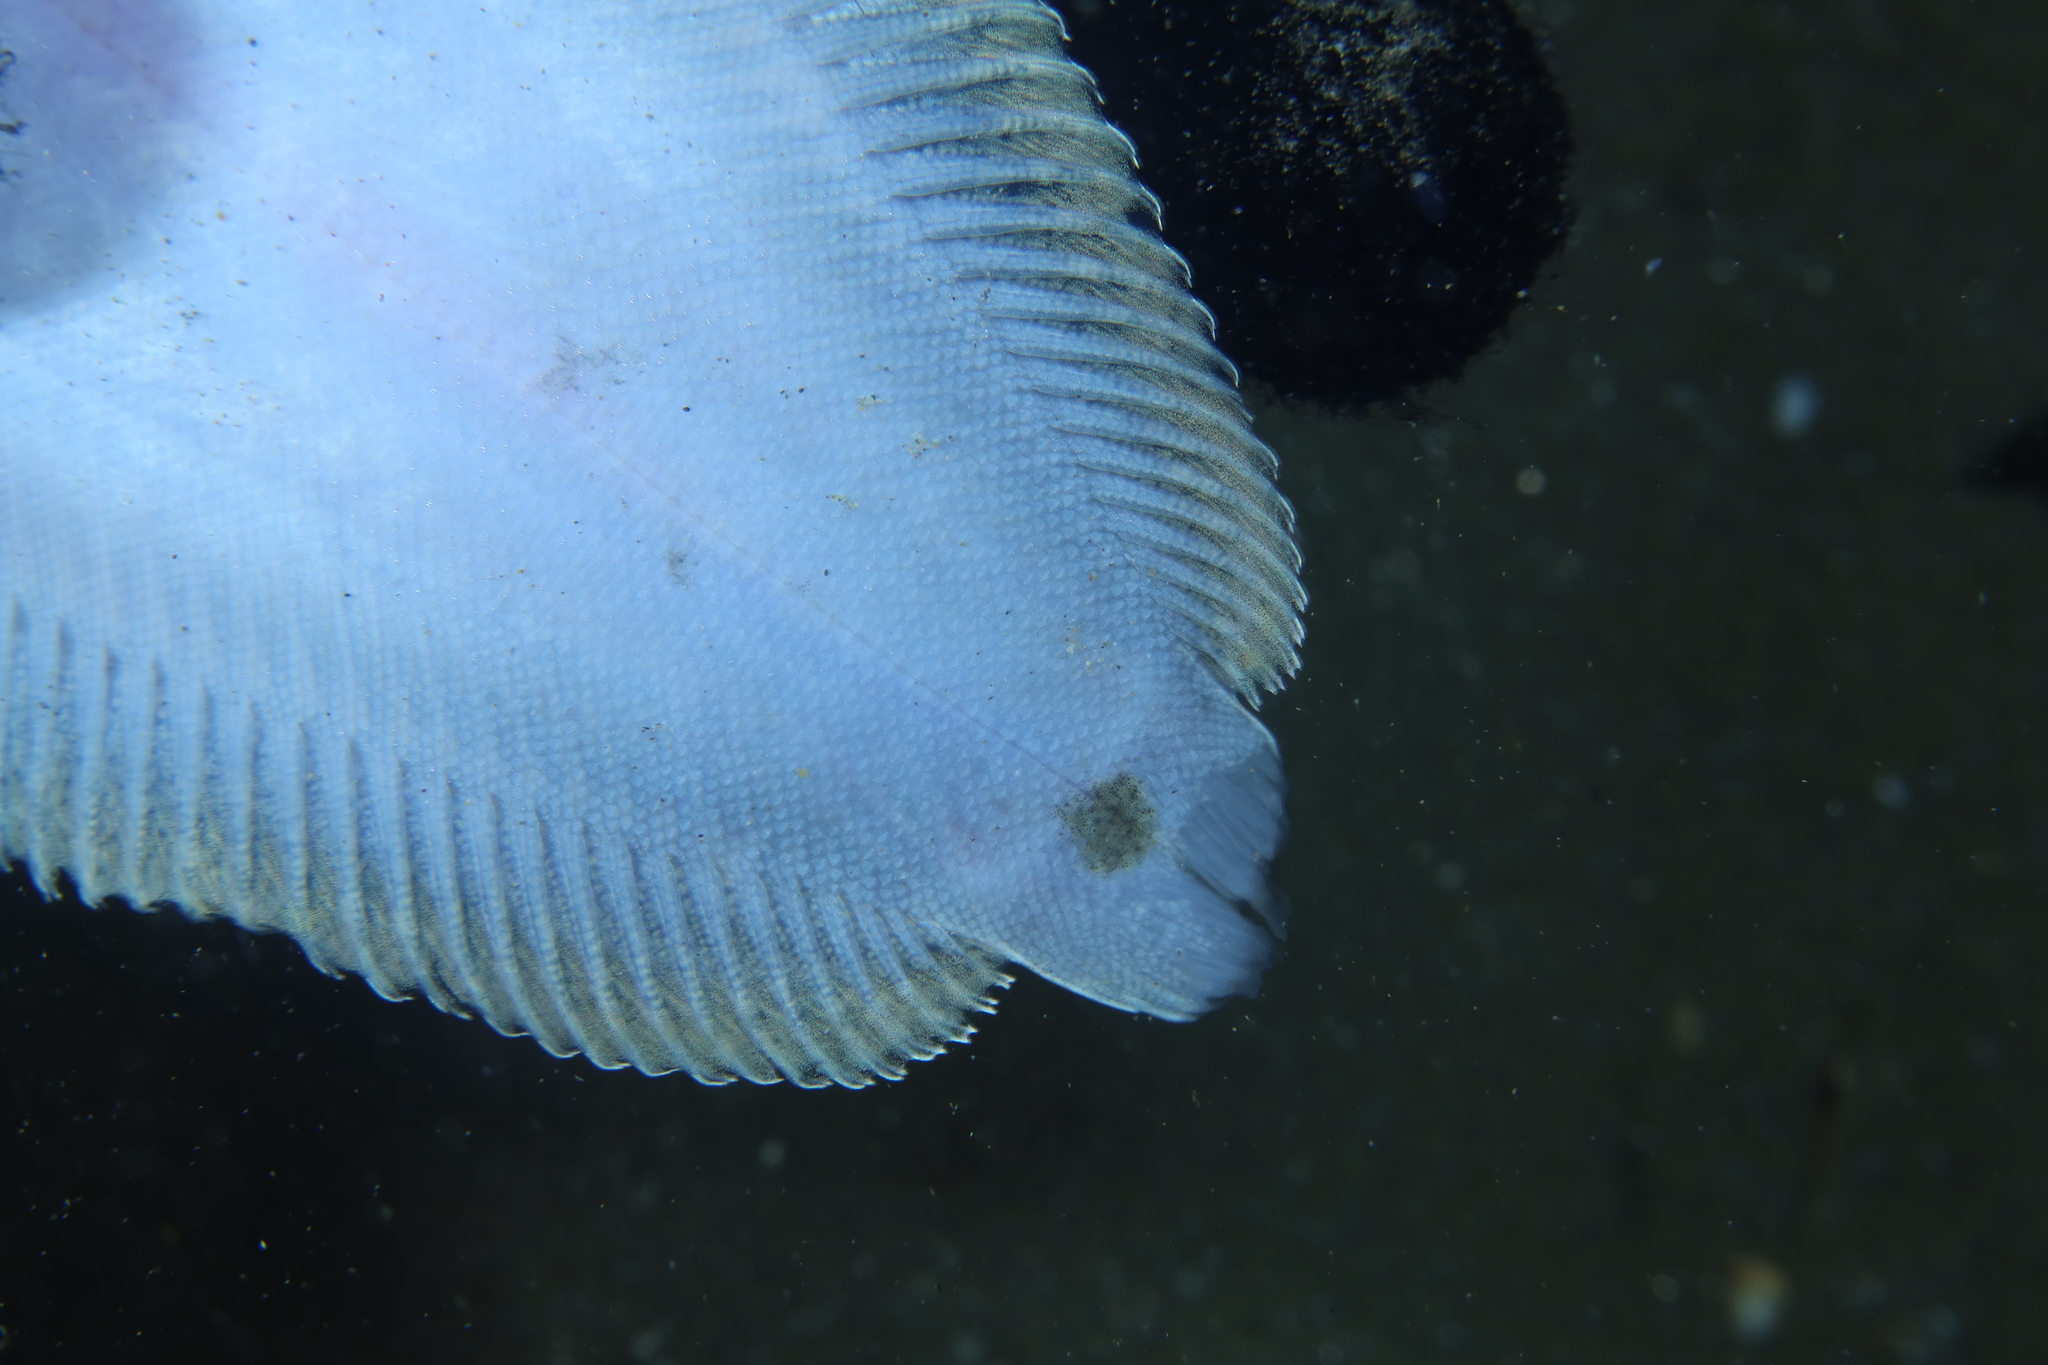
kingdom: Animalia
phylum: Chordata
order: Pleuronectiformes
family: Soleidae
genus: Solea
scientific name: Solea solea
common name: Sole
